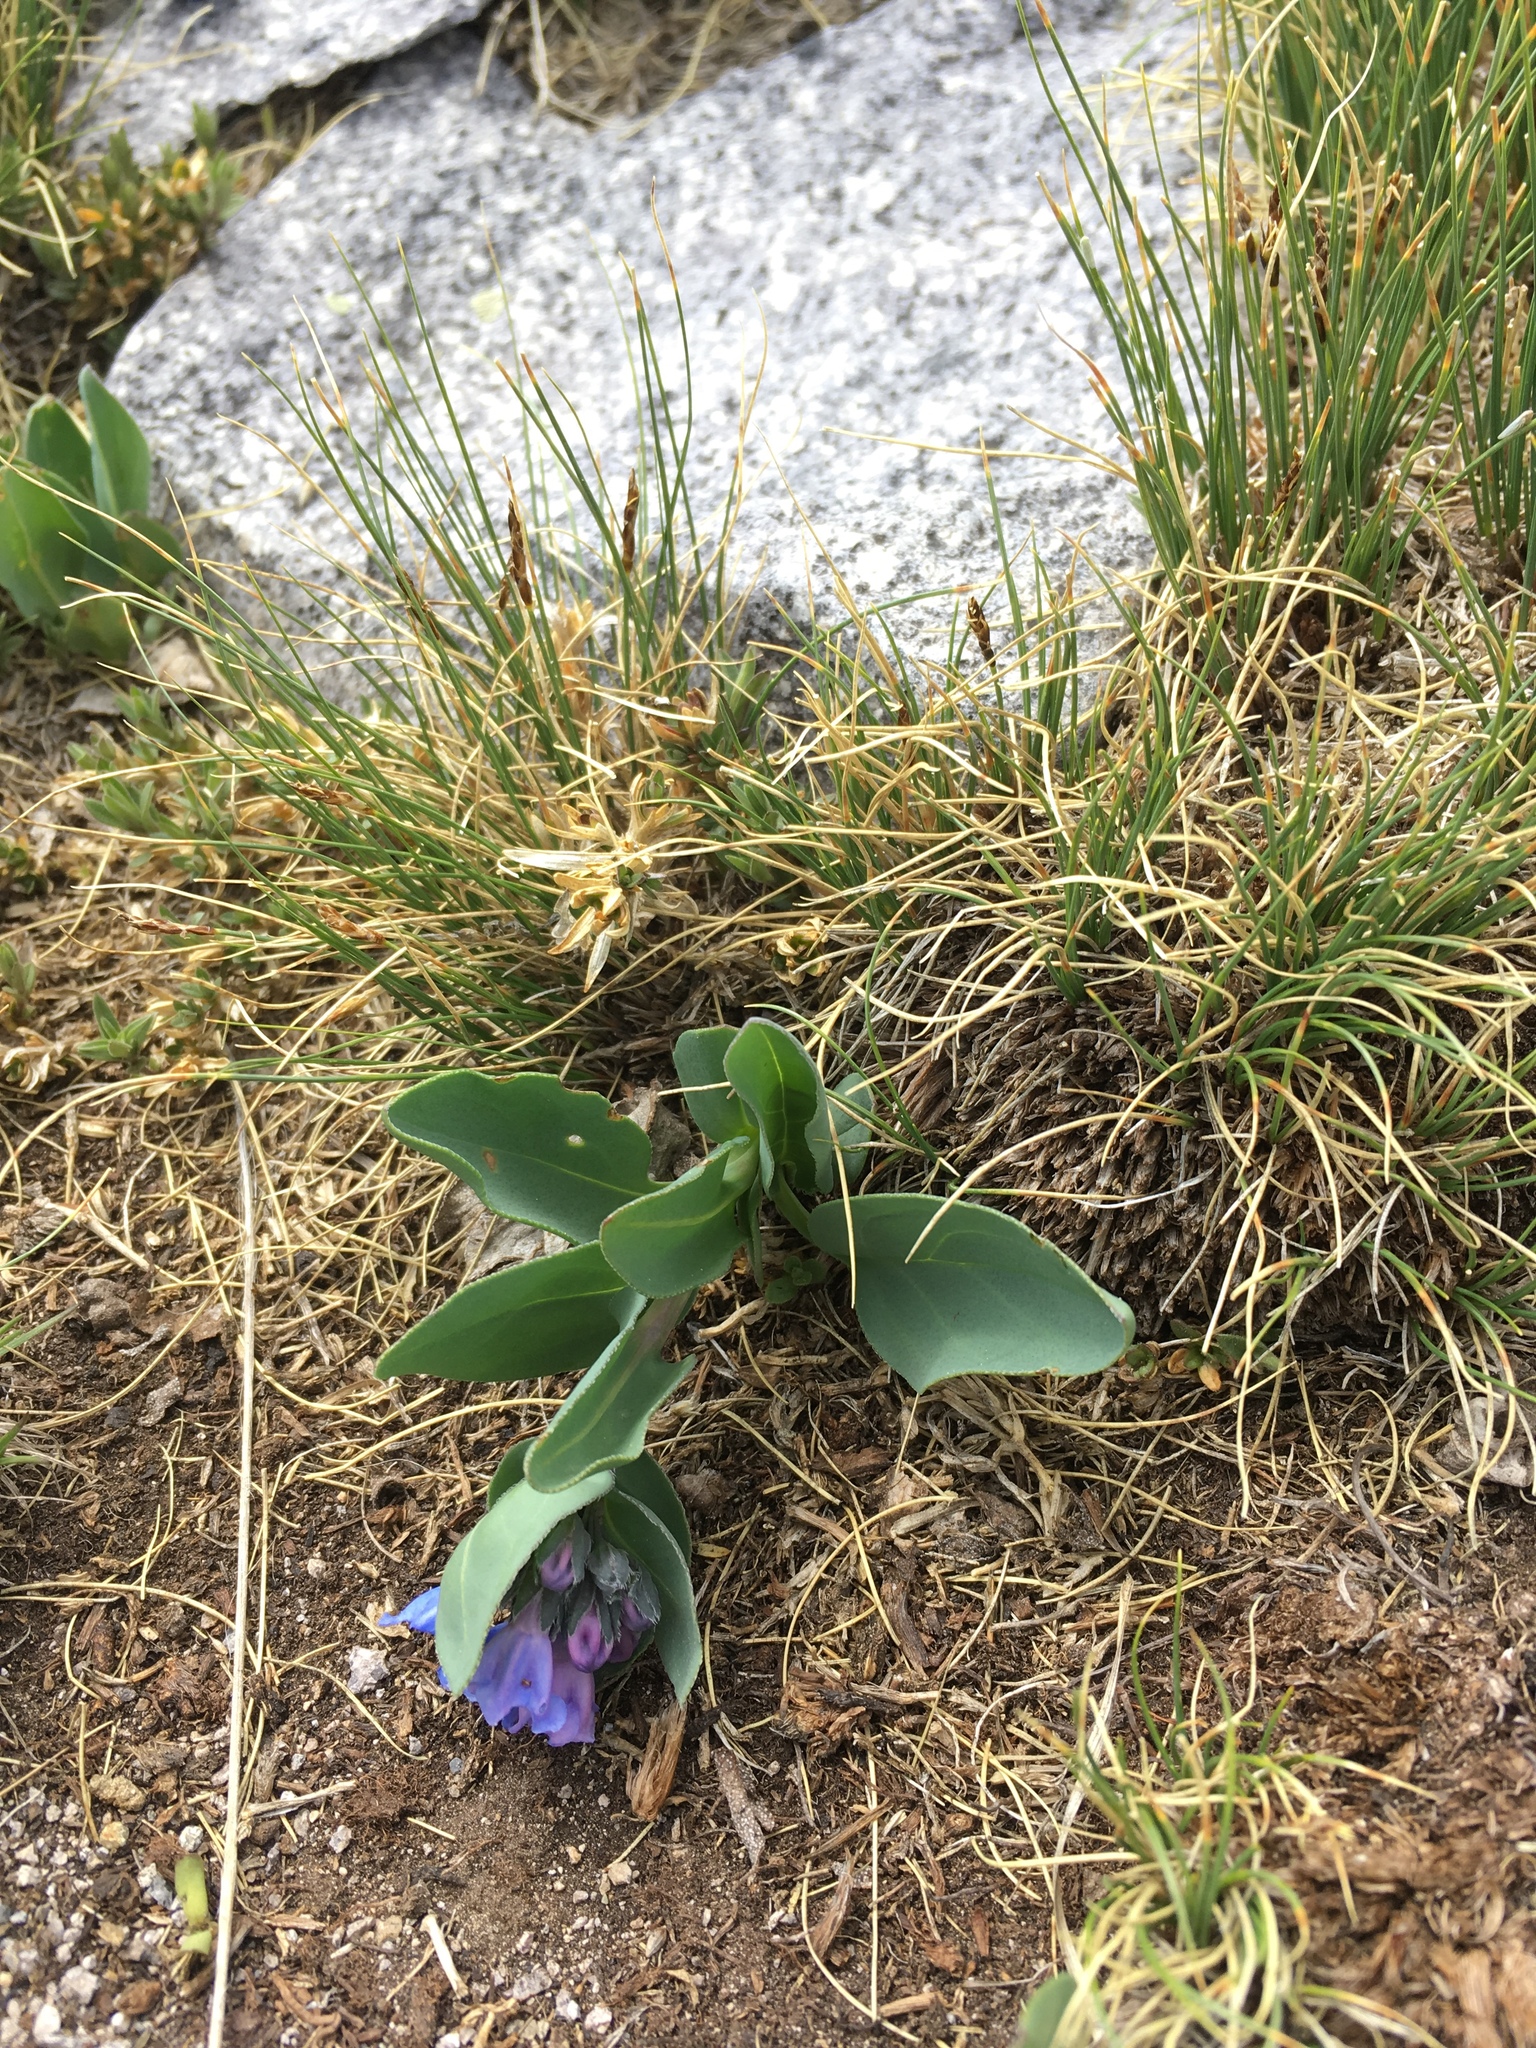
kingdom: Plantae
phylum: Tracheophyta
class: Magnoliopsida
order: Boraginales
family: Boraginaceae
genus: Mertensia
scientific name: Mertensia ovata
